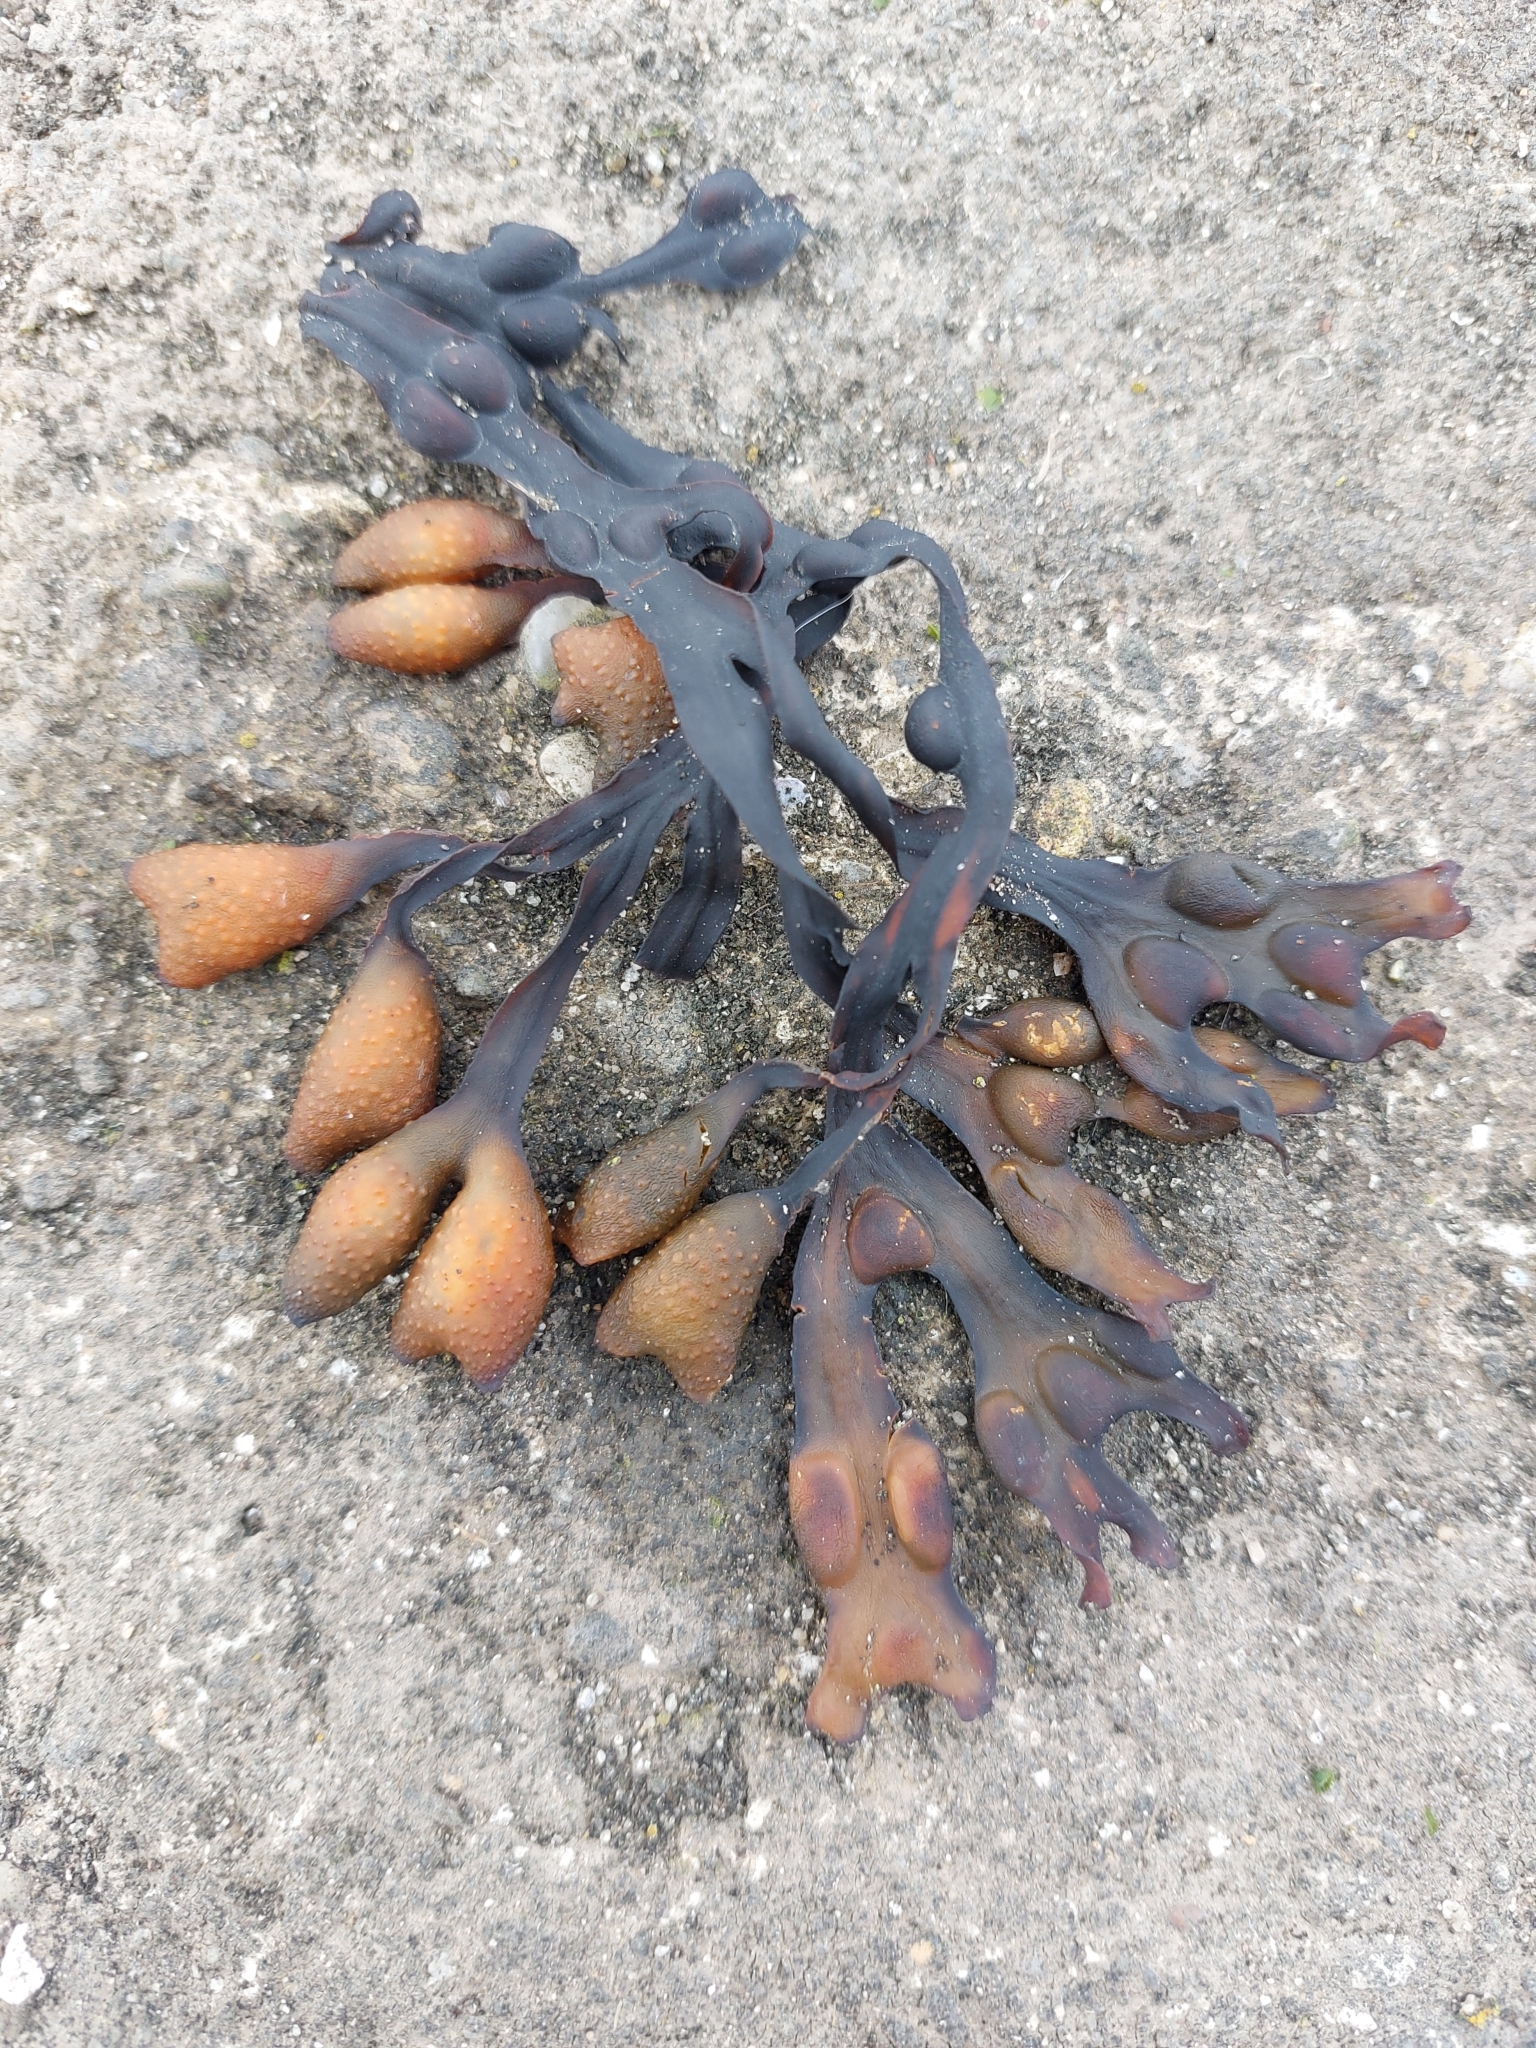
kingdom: Chromista
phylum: Ochrophyta
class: Phaeophyceae
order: Fucales
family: Fucaceae
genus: Fucus
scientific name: Fucus vesiculosus
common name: Bladder wrack
